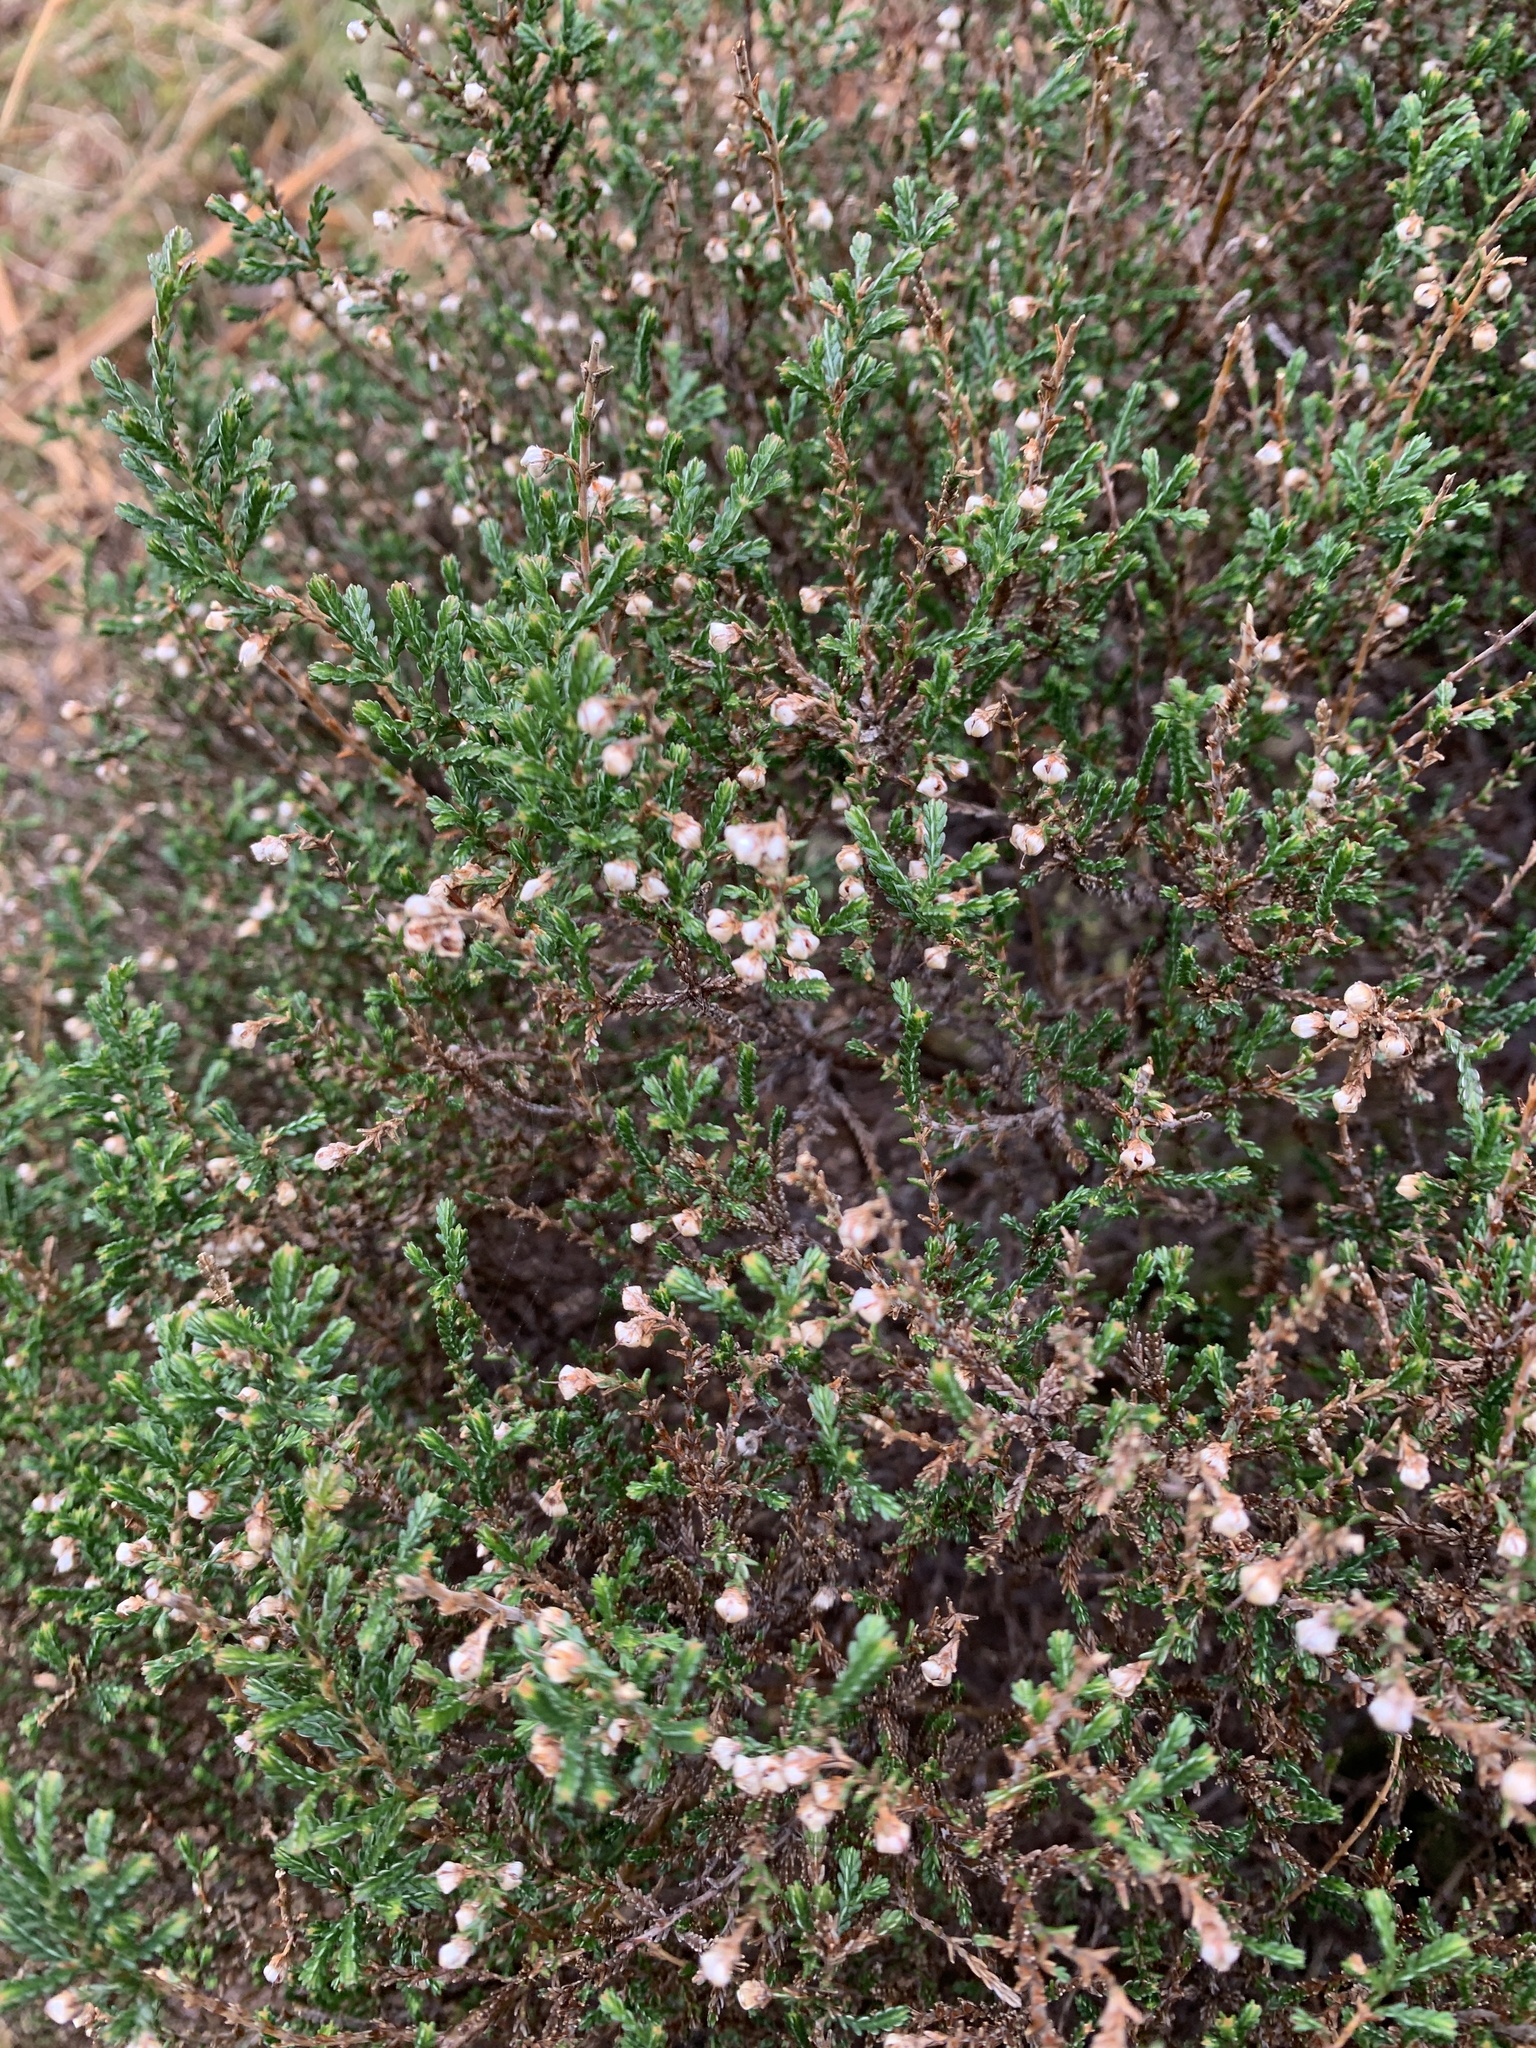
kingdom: Plantae
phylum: Tracheophyta
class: Magnoliopsida
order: Ericales
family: Ericaceae
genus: Calluna
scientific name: Calluna vulgaris
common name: Heather
